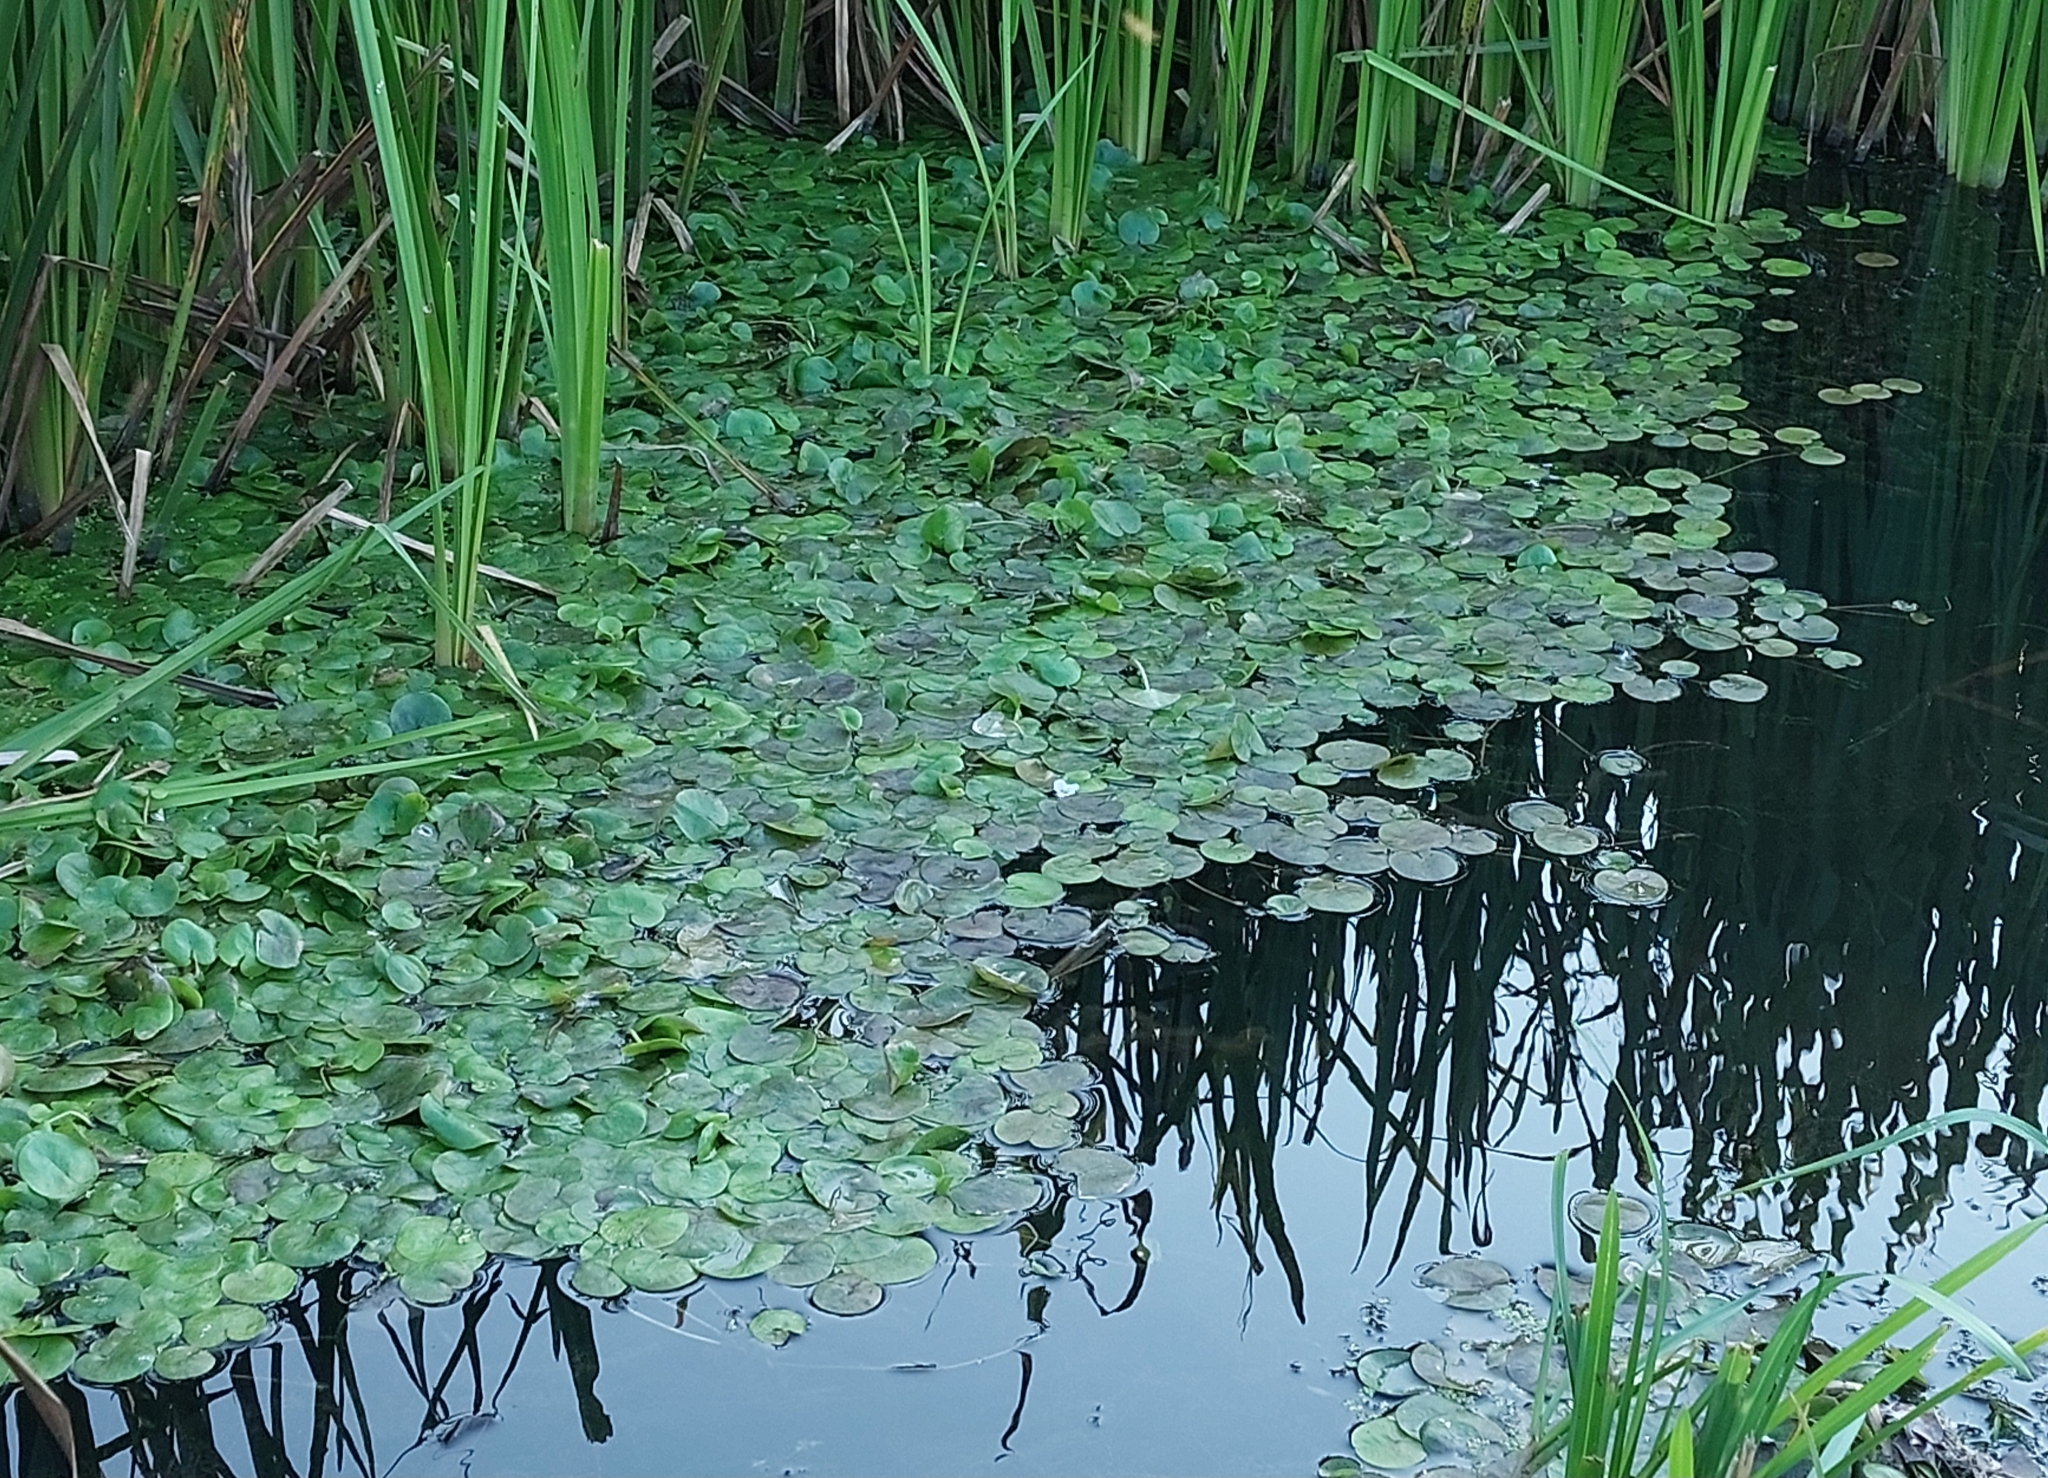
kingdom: Plantae
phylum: Tracheophyta
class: Liliopsida
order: Alismatales
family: Hydrocharitaceae
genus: Hydrocharis
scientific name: Hydrocharis morsus-ranae
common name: Frogbit
